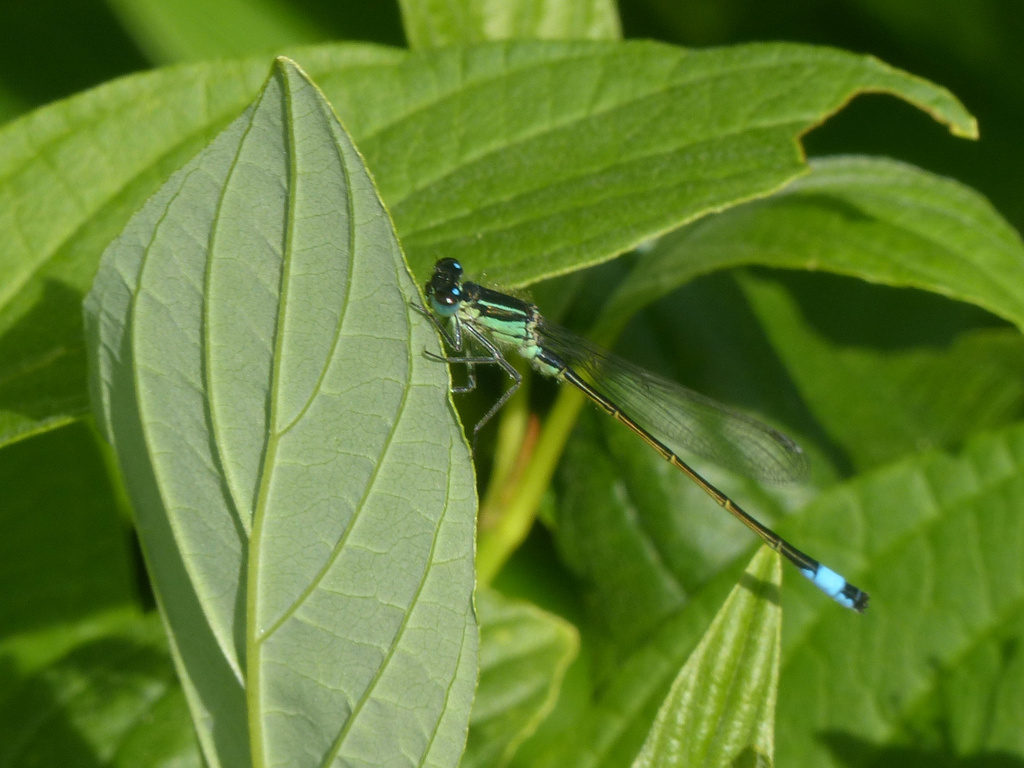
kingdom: Animalia
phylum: Arthropoda
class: Insecta
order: Odonata
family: Coenagrionidae
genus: Ischnura
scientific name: Ischnura elegans
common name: Blue-tailed damselfly
